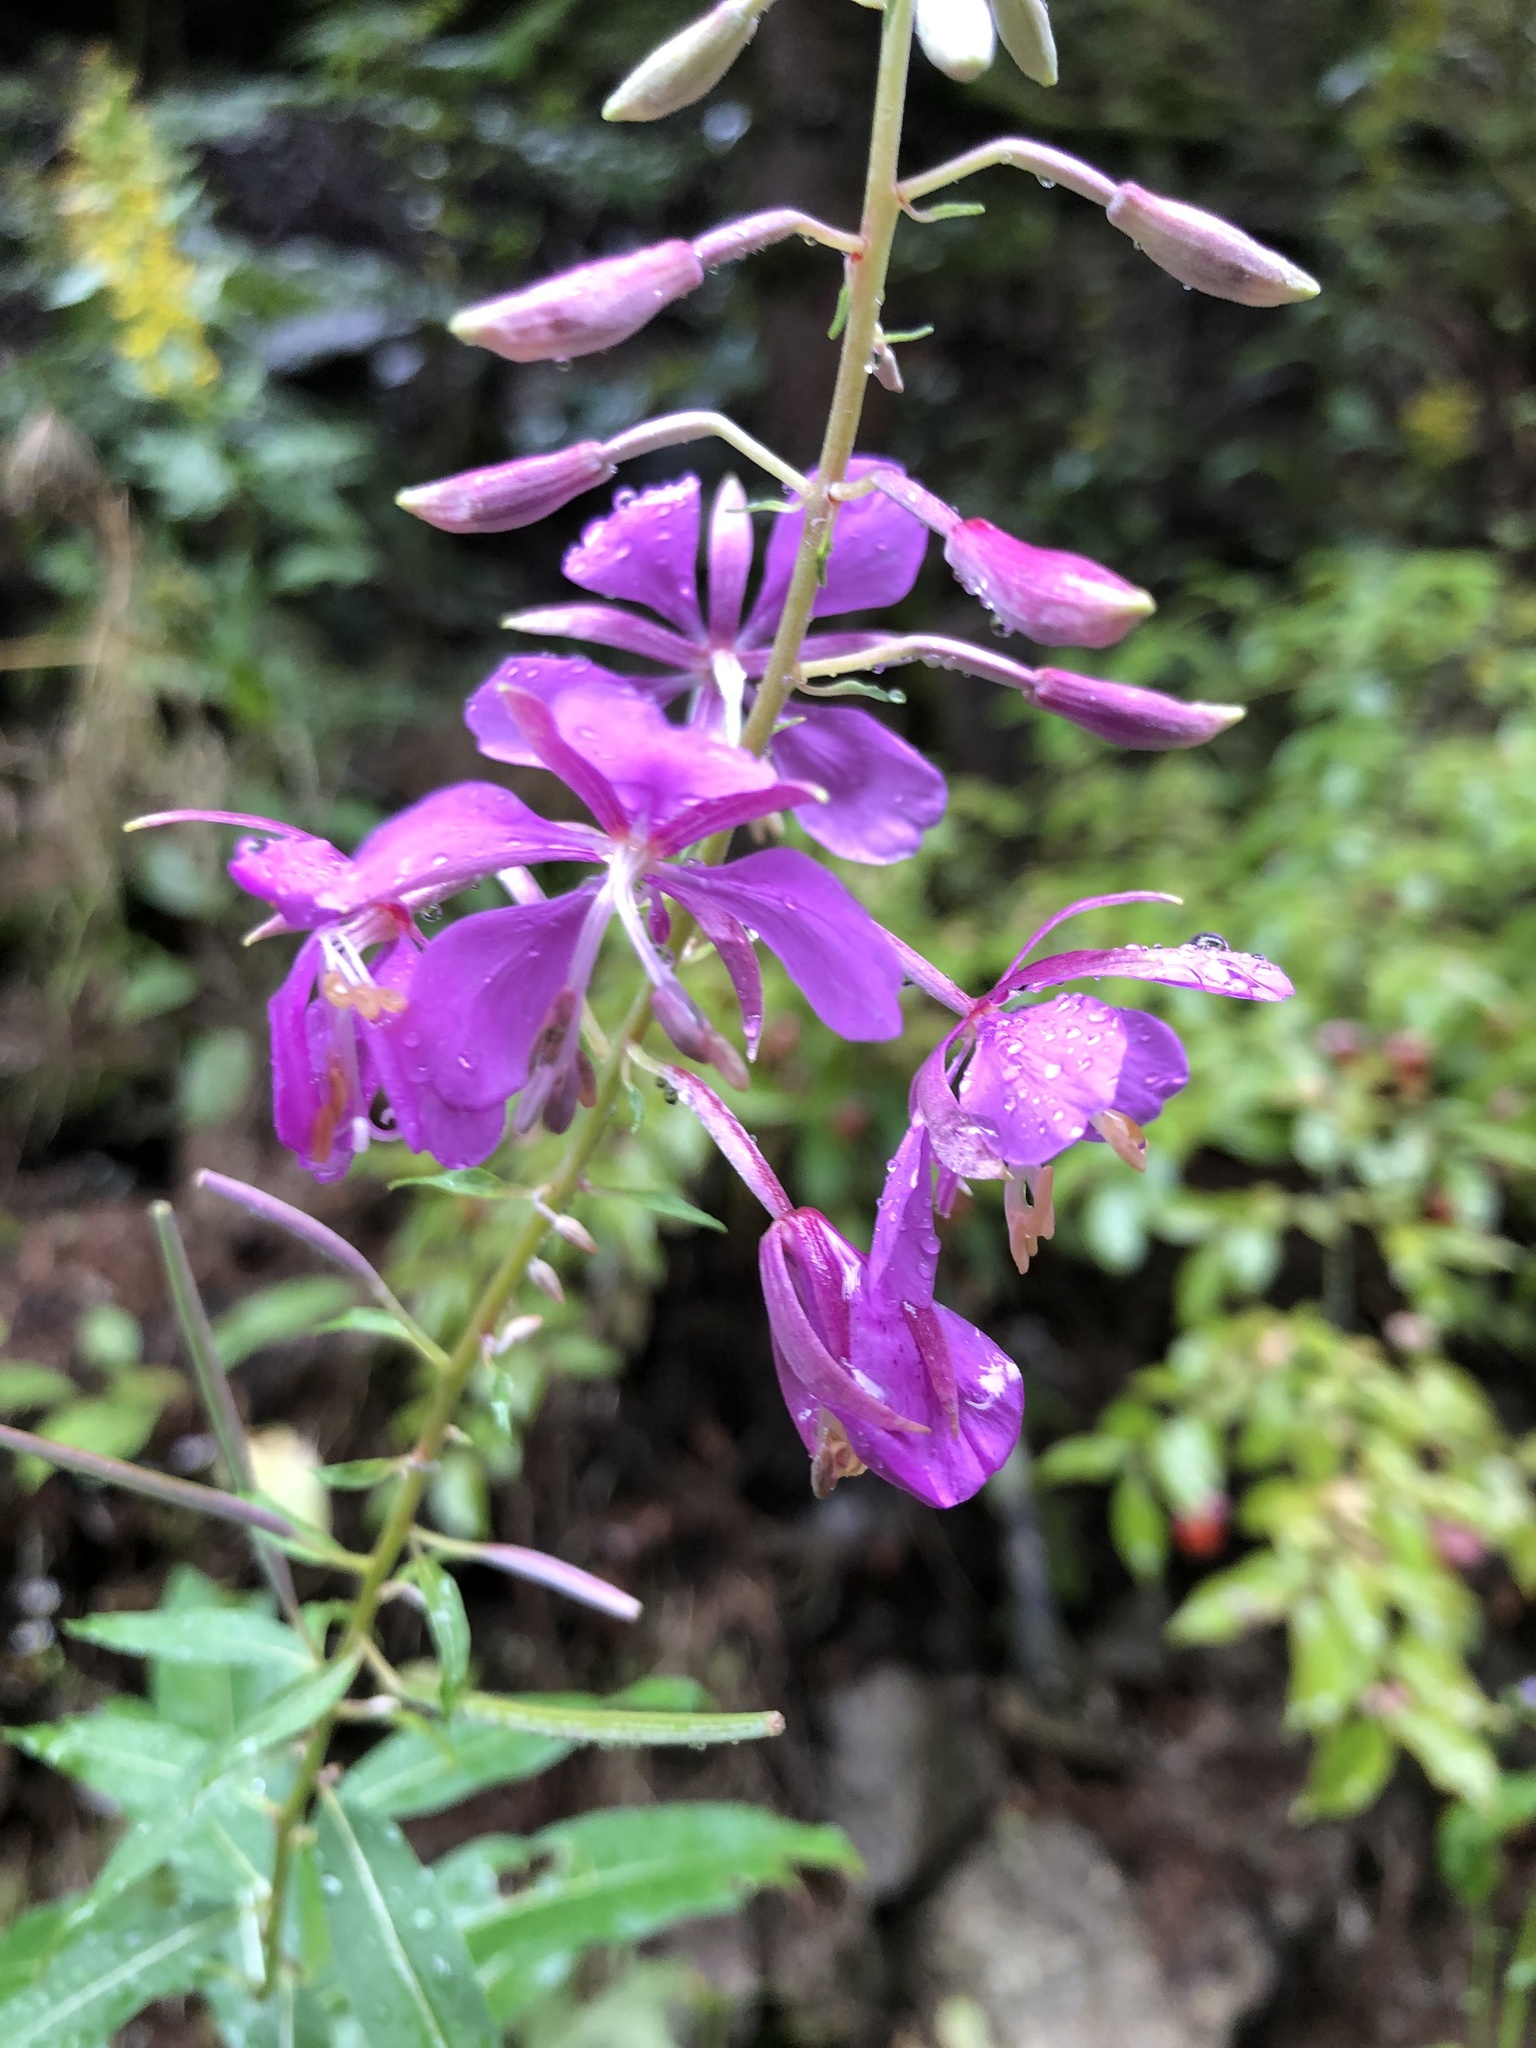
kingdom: Plantae
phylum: Tracheophyta
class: Magnoliopsida
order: Myrtales
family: Onagraceae
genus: Chamaenerion
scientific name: Chamaenerion angustifolium
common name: Fireweed
